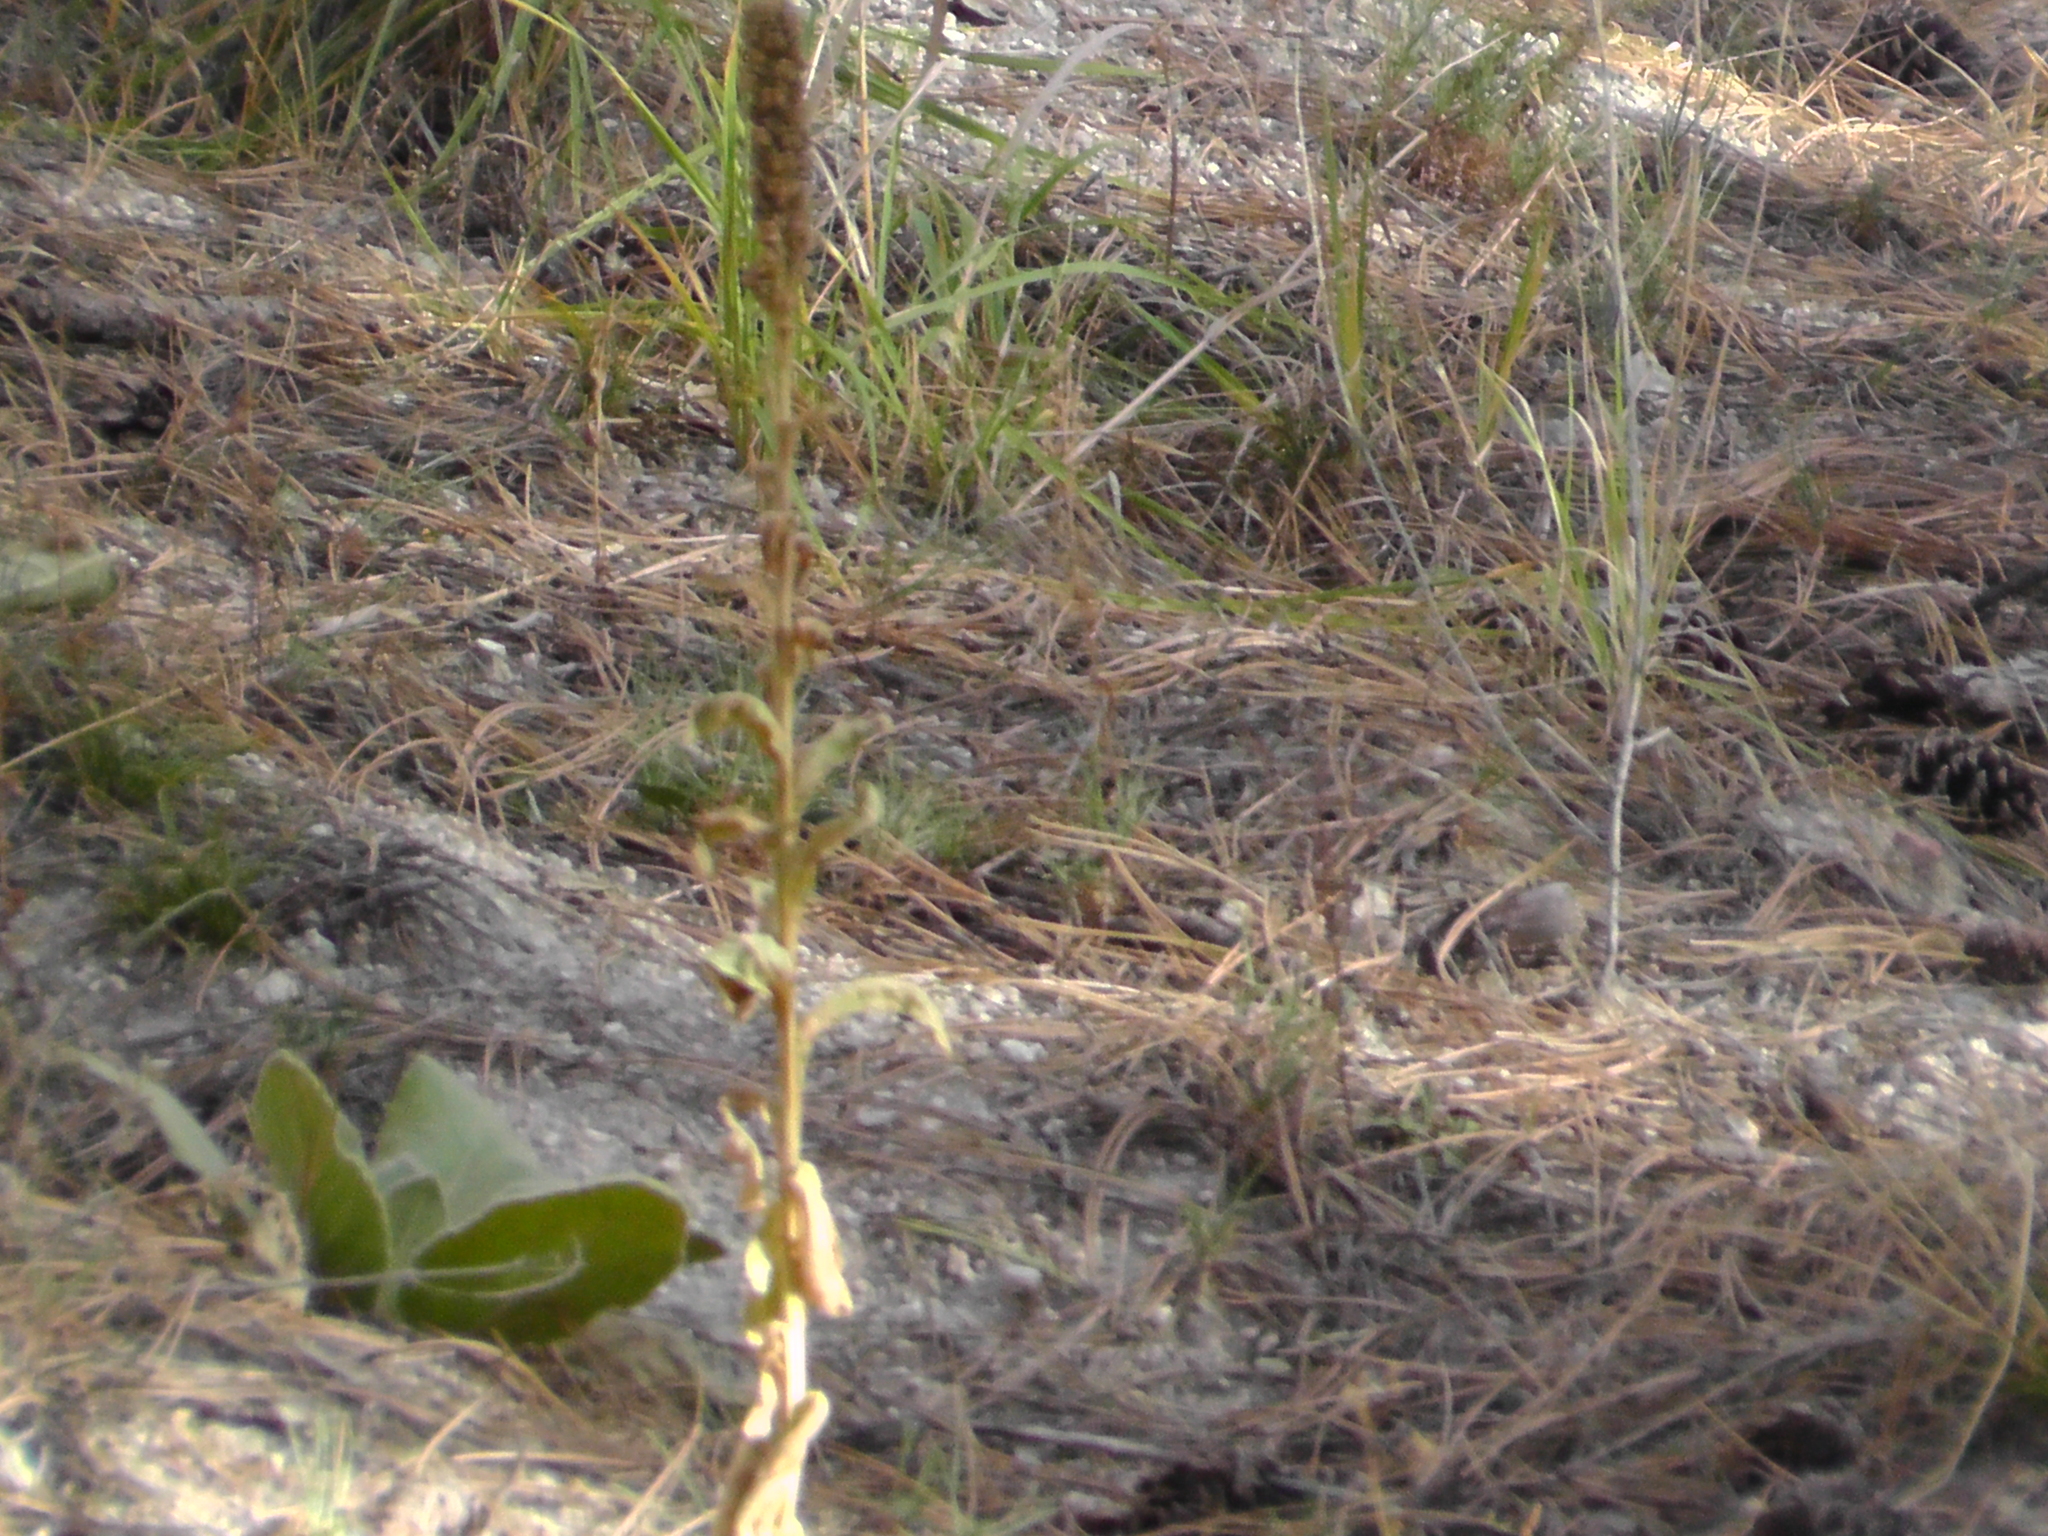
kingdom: Plantae
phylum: Tracheophyta
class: Magnoliopsida
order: Lamiales
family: Scrophulariaceae
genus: Verbascum
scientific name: Verbascum thapsus
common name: Common mullein
